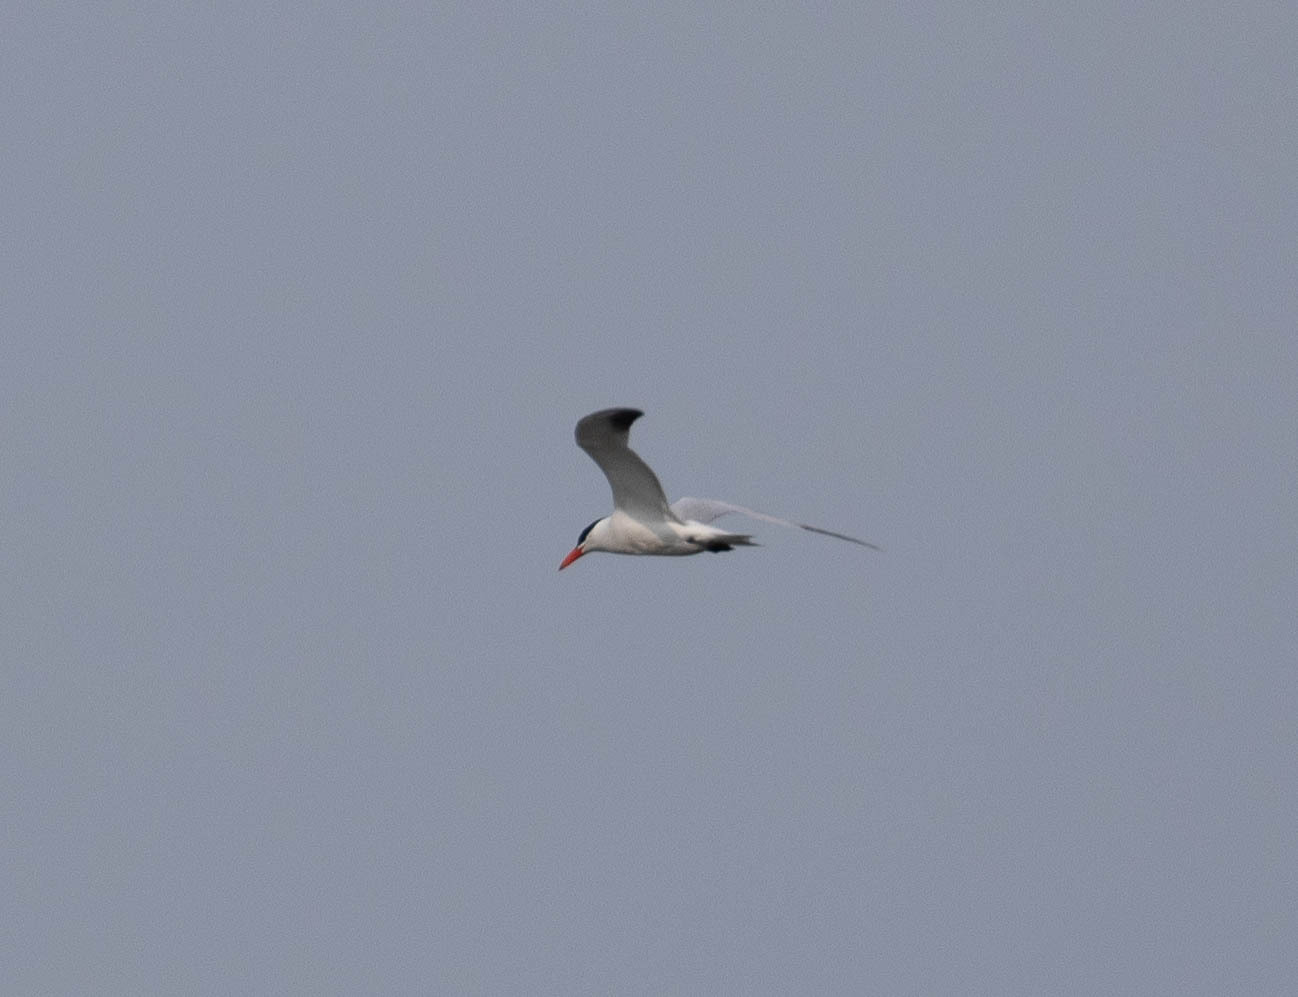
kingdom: Animalia
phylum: Chordata
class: Aves
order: Charadriiformes
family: Laridae
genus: Hydroprogne
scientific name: Hydroprogne caspia
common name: Caspian tern
